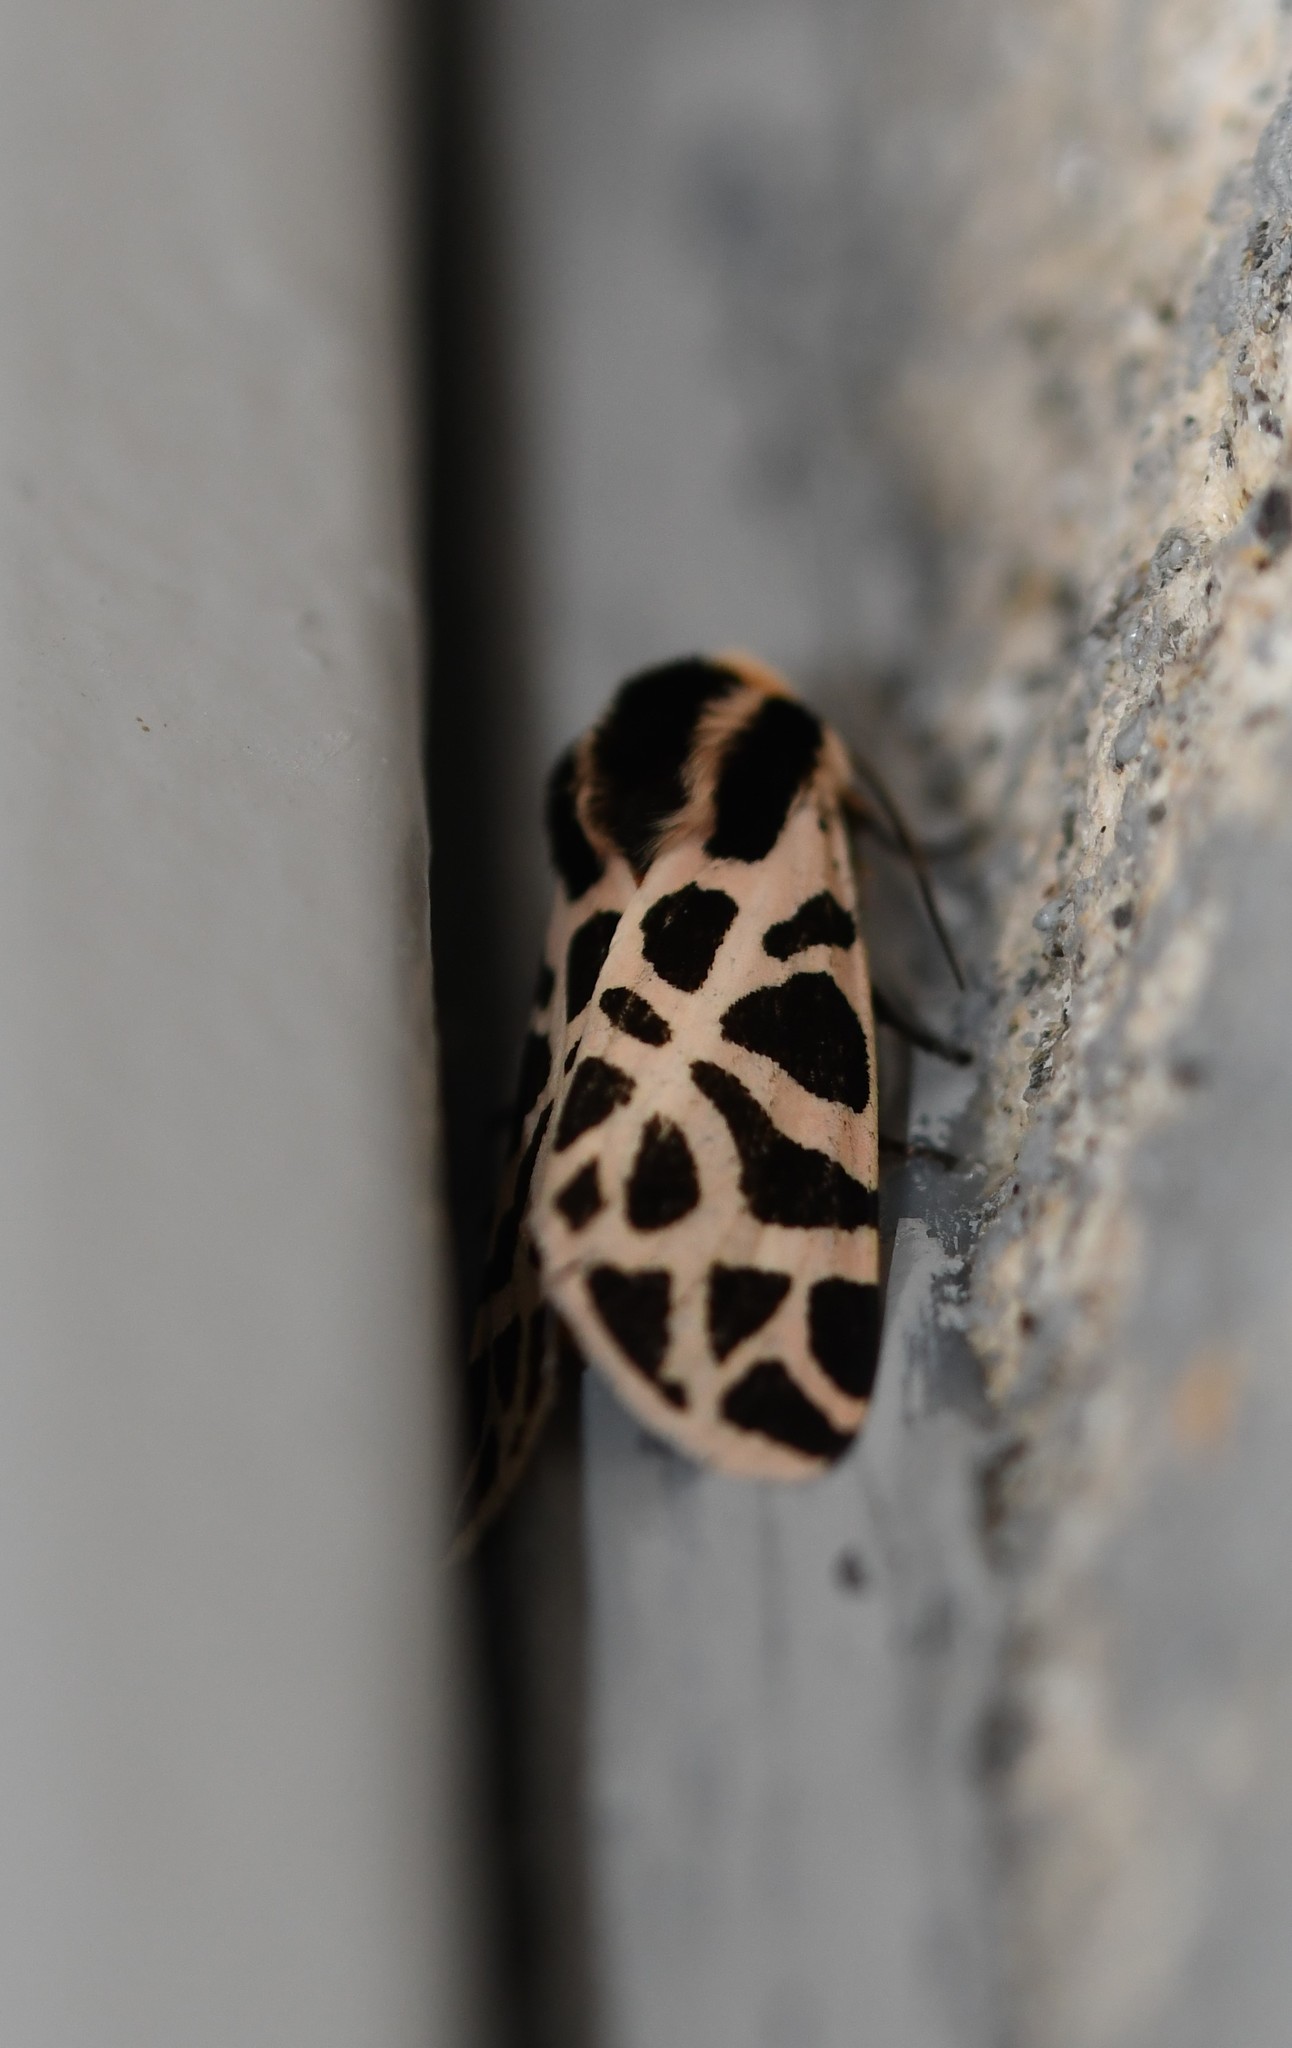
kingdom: Animalia
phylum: Arthropoda
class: Insecta
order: Lepidoptera
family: Erebidae
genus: Cymbalophora
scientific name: Cymbalophora pudica
